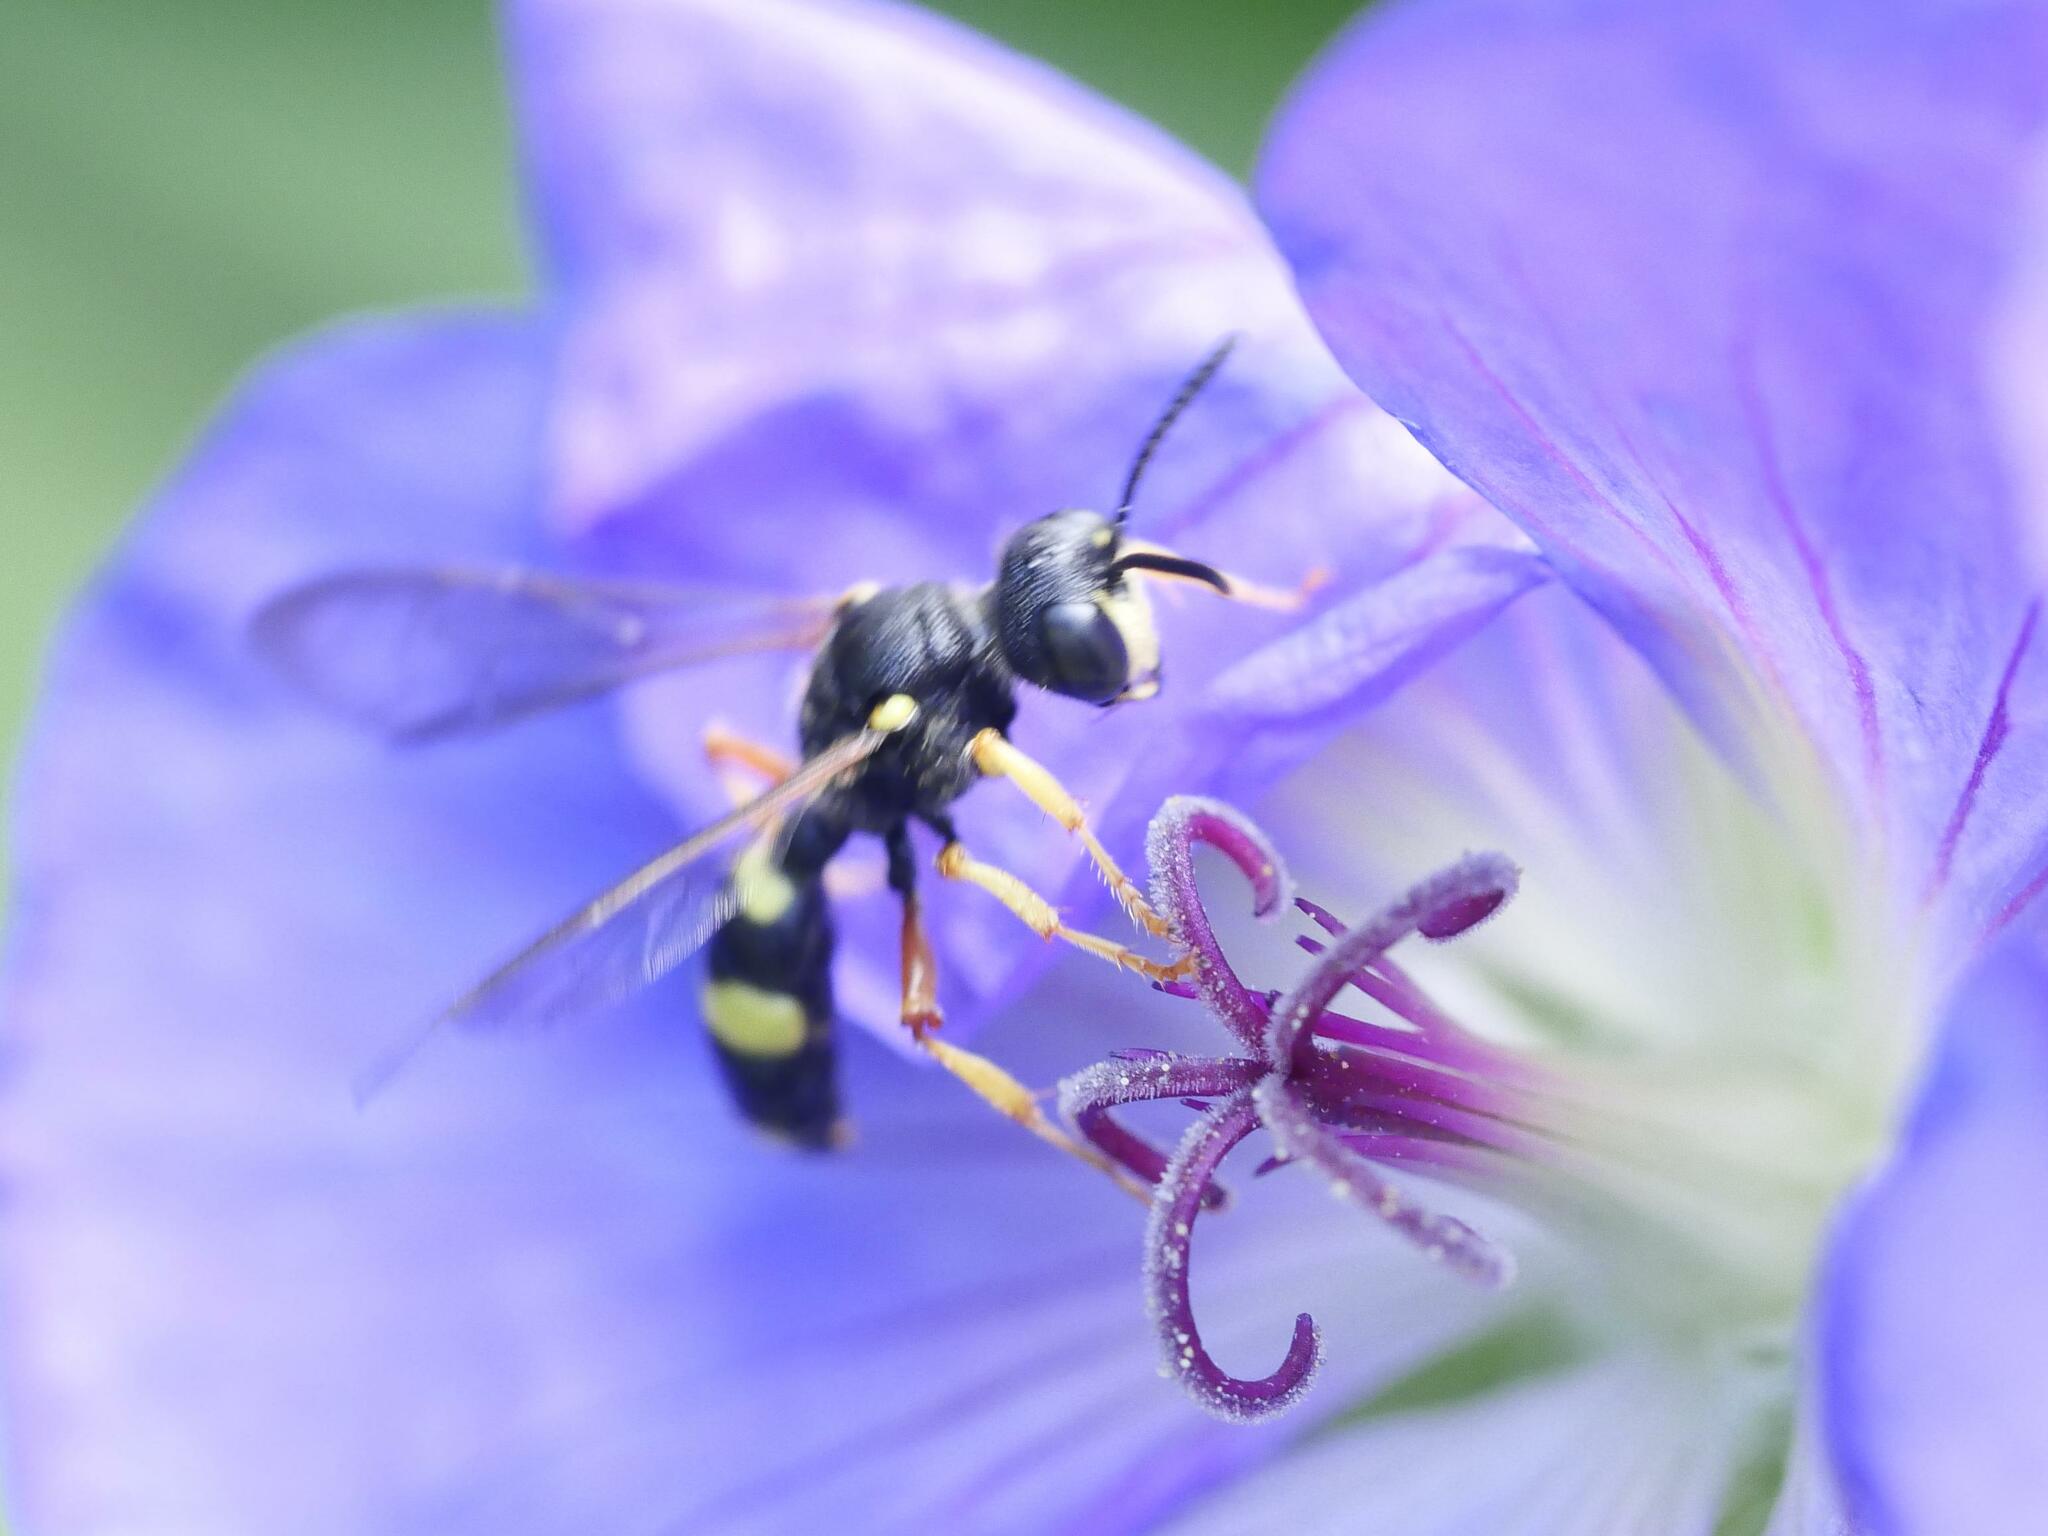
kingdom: Animalia
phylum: Arthropoda
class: Insecta
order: Hymenoptera
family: Crabronidae
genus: Cerceris
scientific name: Cerceris rybyensis
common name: Ornate tailed digger wasp
